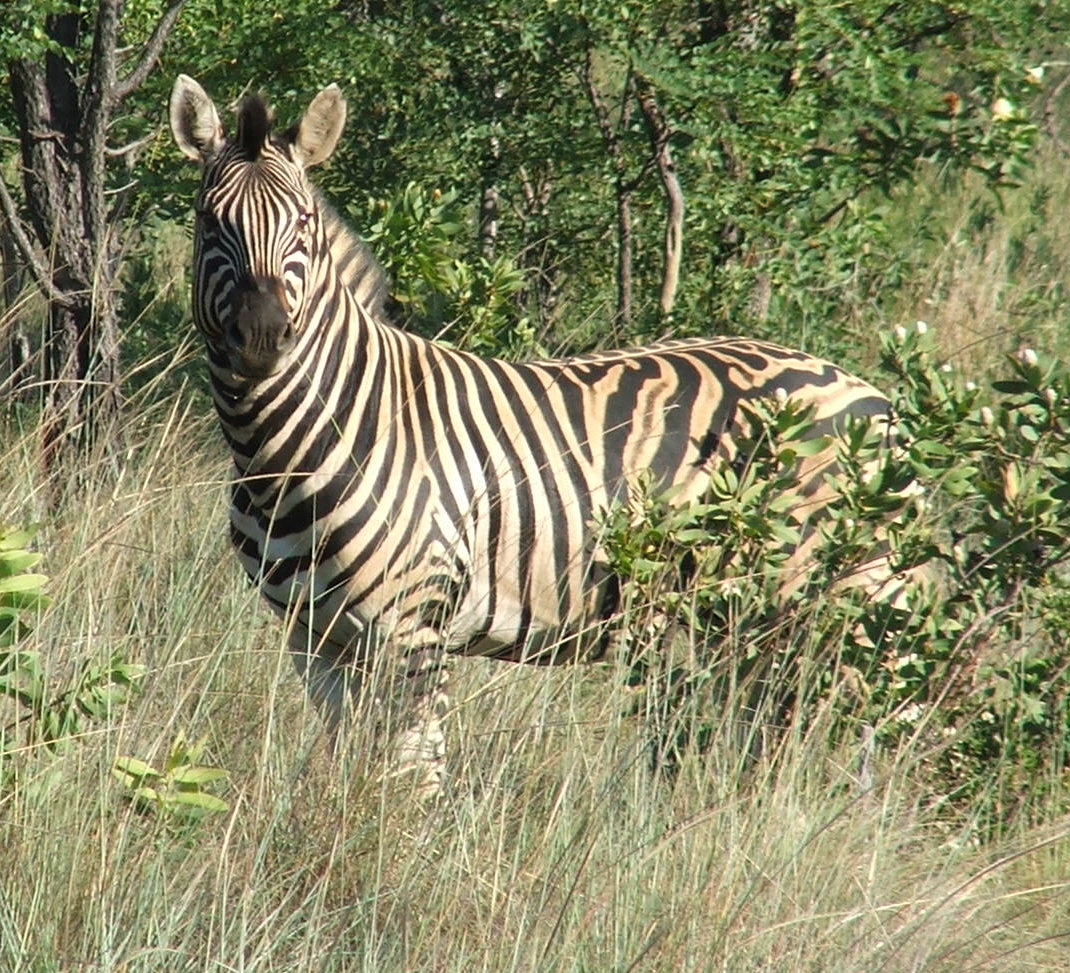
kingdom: Animalia
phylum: Chordata
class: Mammalia
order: Perissodactyla
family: Equidae
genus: Equus
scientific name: Equus quagga
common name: Plains zebra
